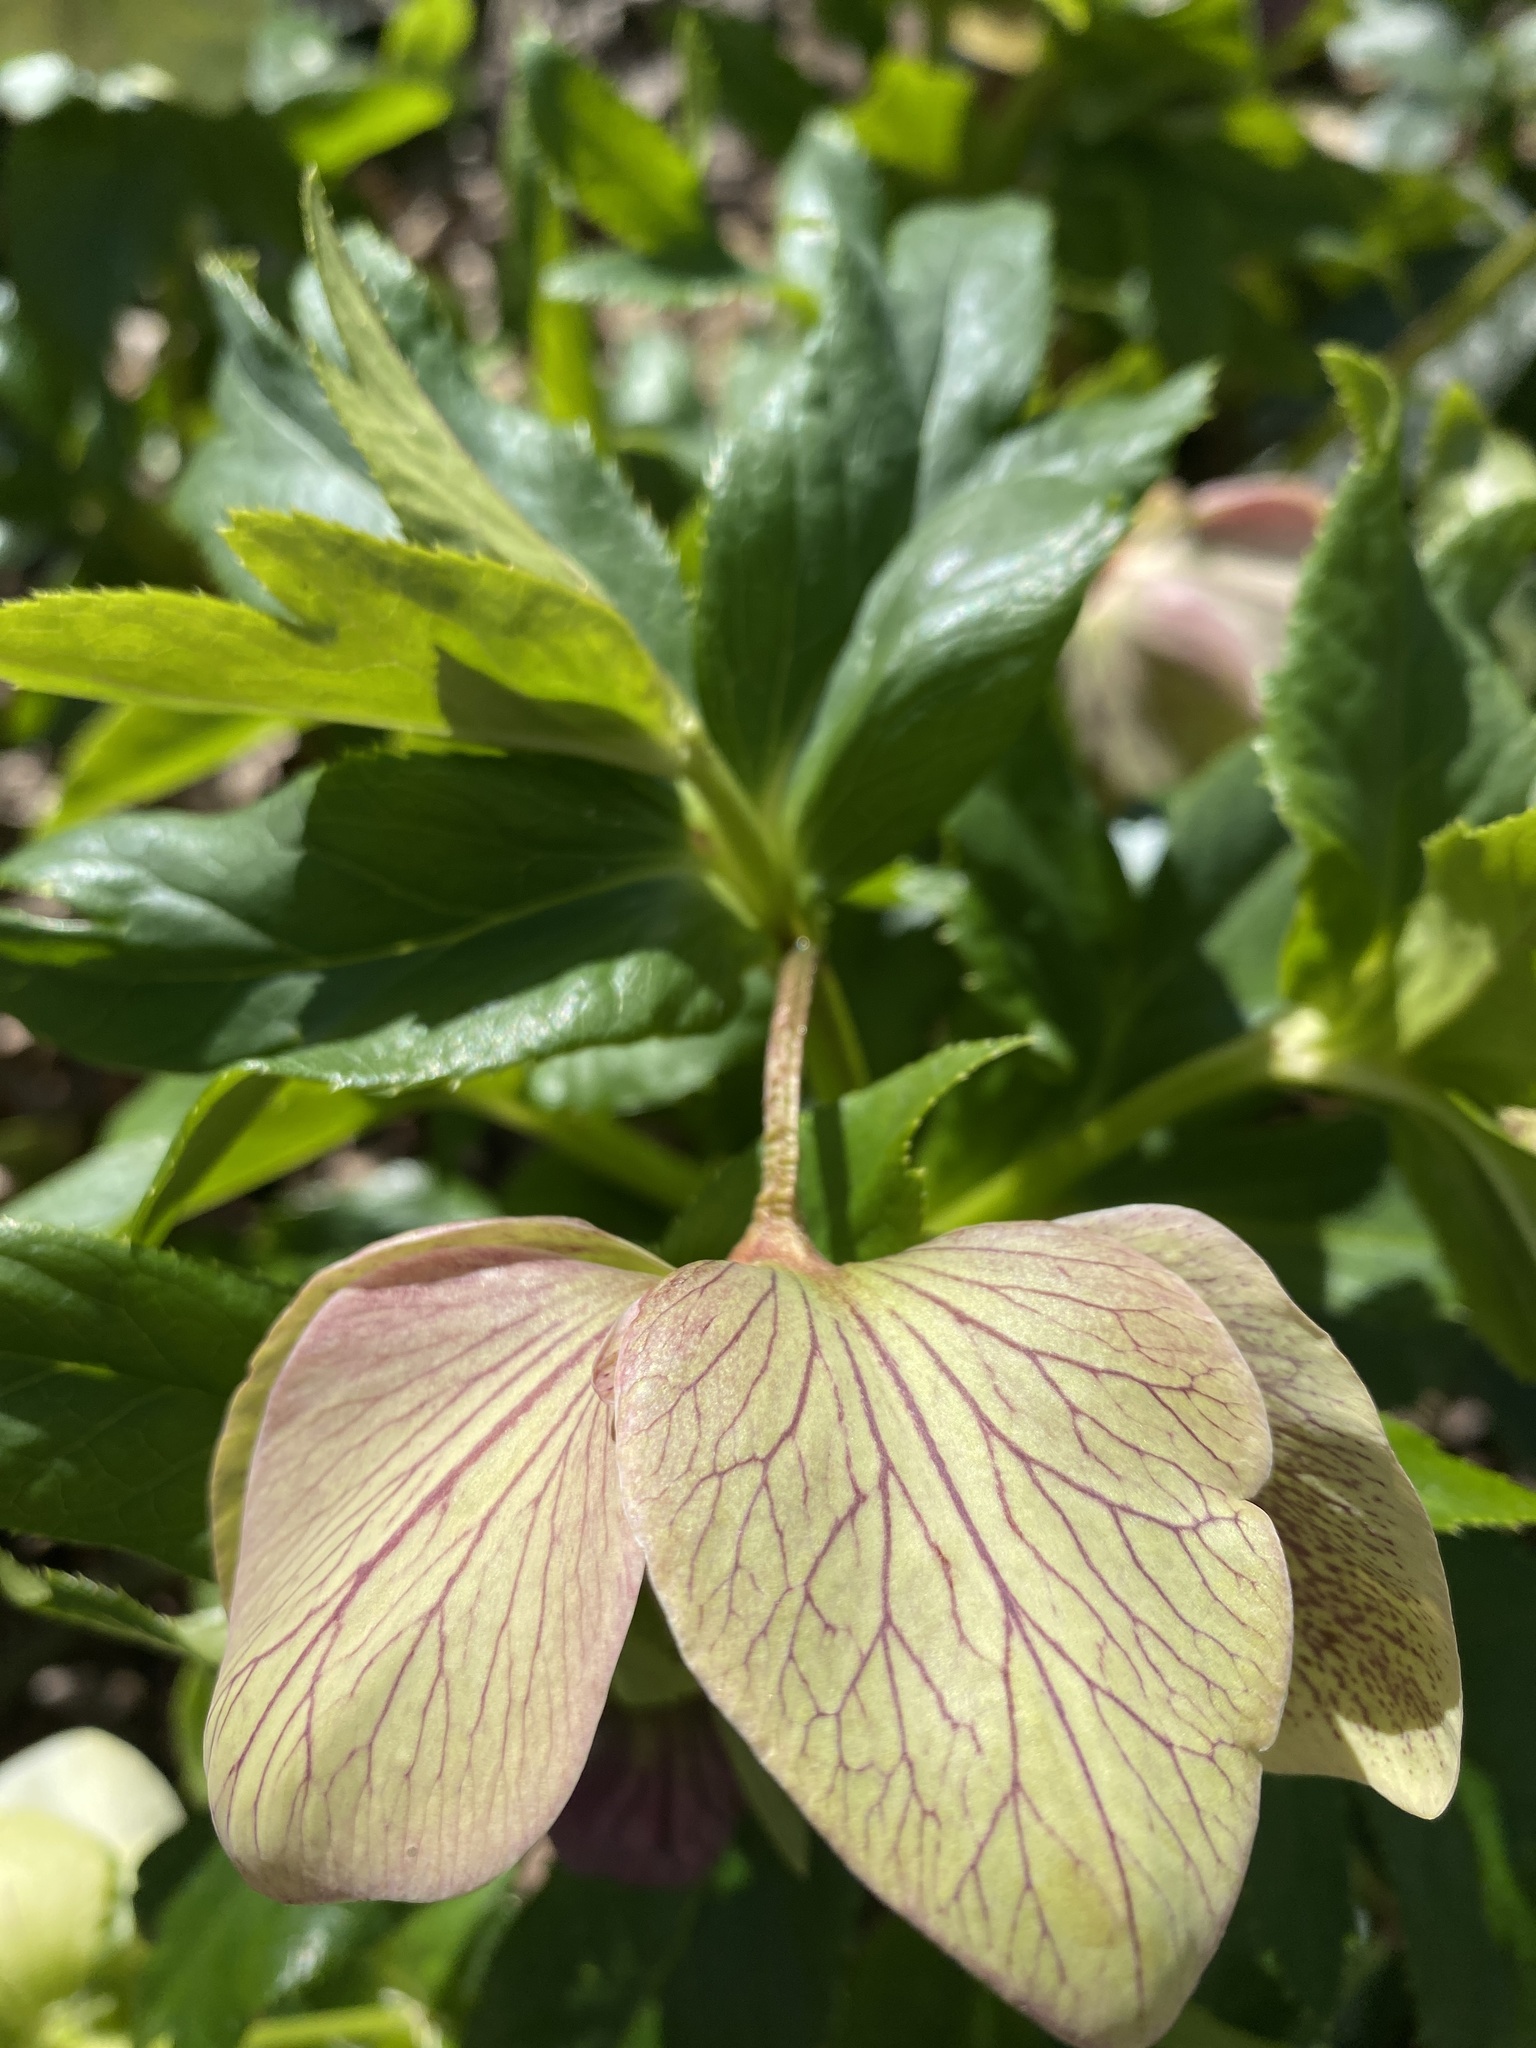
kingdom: Plantae
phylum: Tracheophyta
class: Magnoliopsida
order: Ranunculales
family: Ranunculaceae
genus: Helleborus
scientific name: Helleborus orientalis
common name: Lenten-rose
